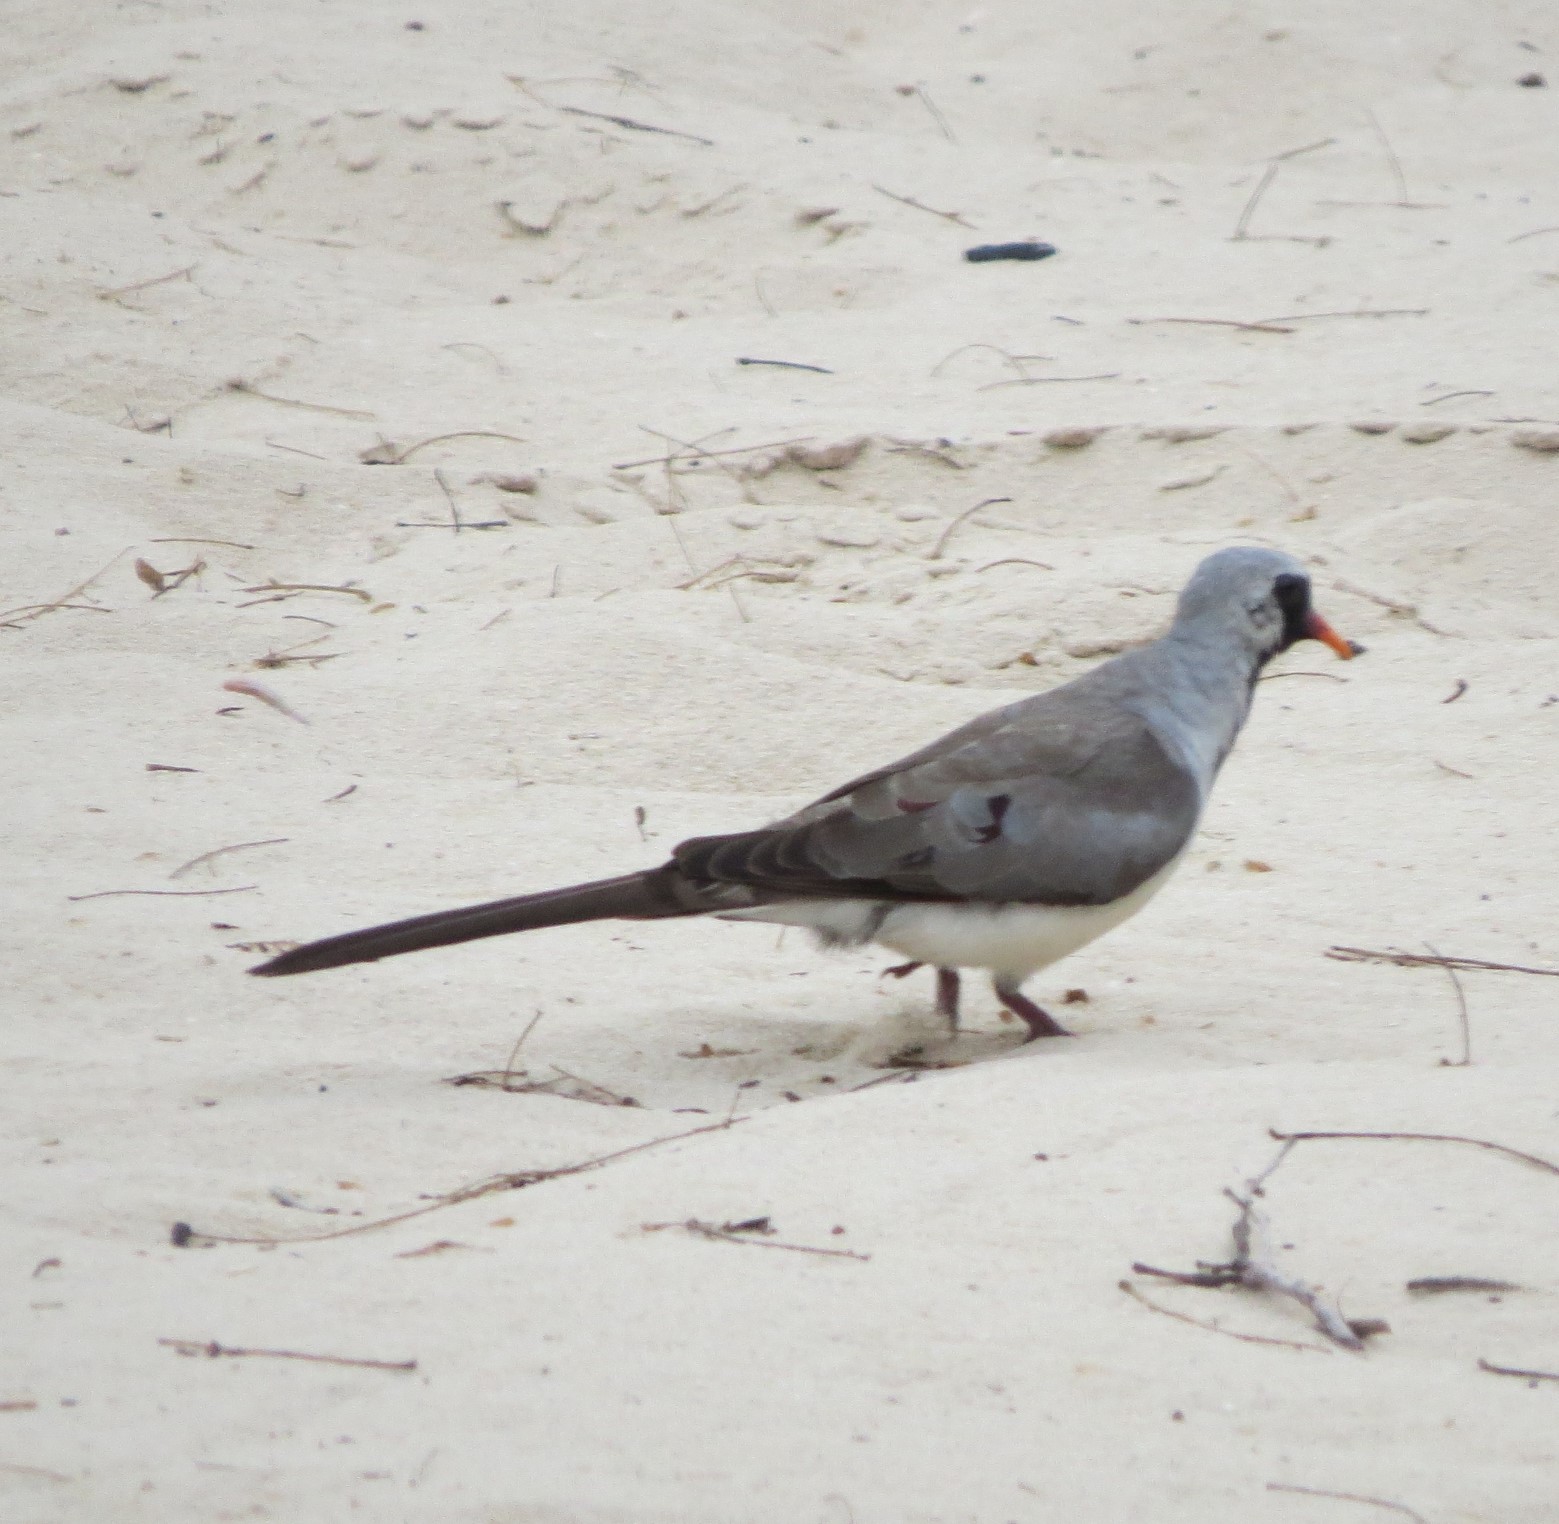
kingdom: Animalia
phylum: Chordata
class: Aves
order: Columbiformes
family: Columbidae
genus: Oena
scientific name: Oena capensis
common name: Namaqua dove
